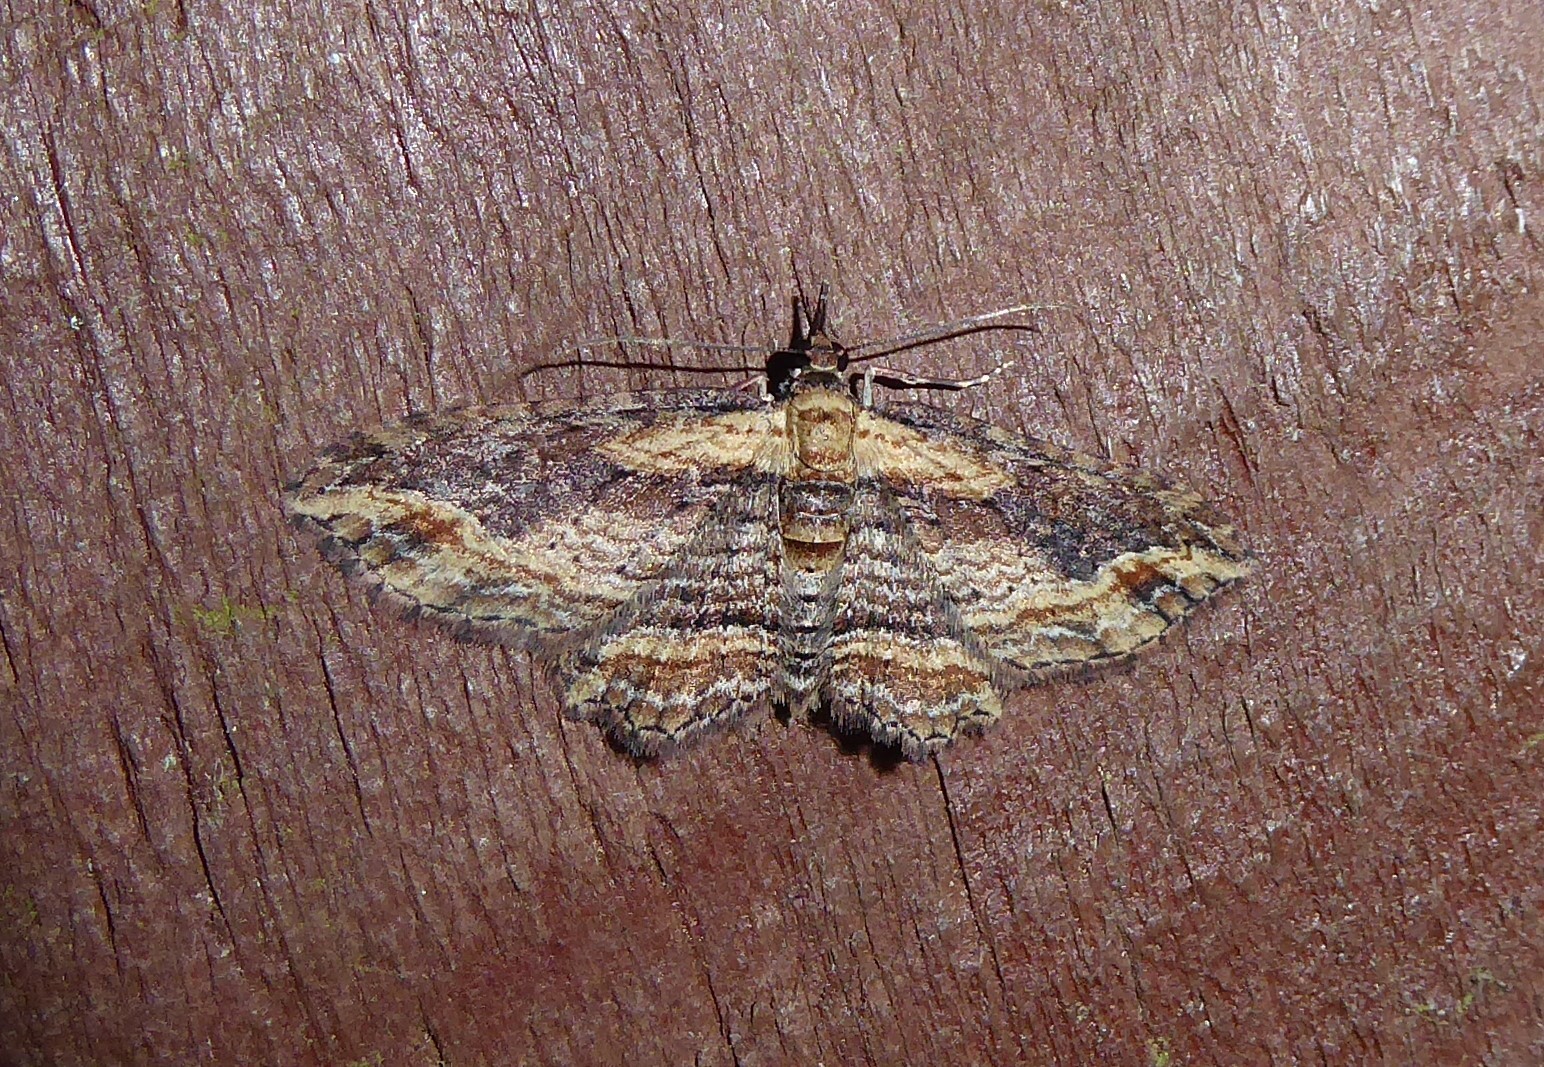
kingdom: Animalia
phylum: Arthropoda
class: Insecta
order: Lepidoptera
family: Geometridae
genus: Chloroclystis
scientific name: Chloroclystis filata
